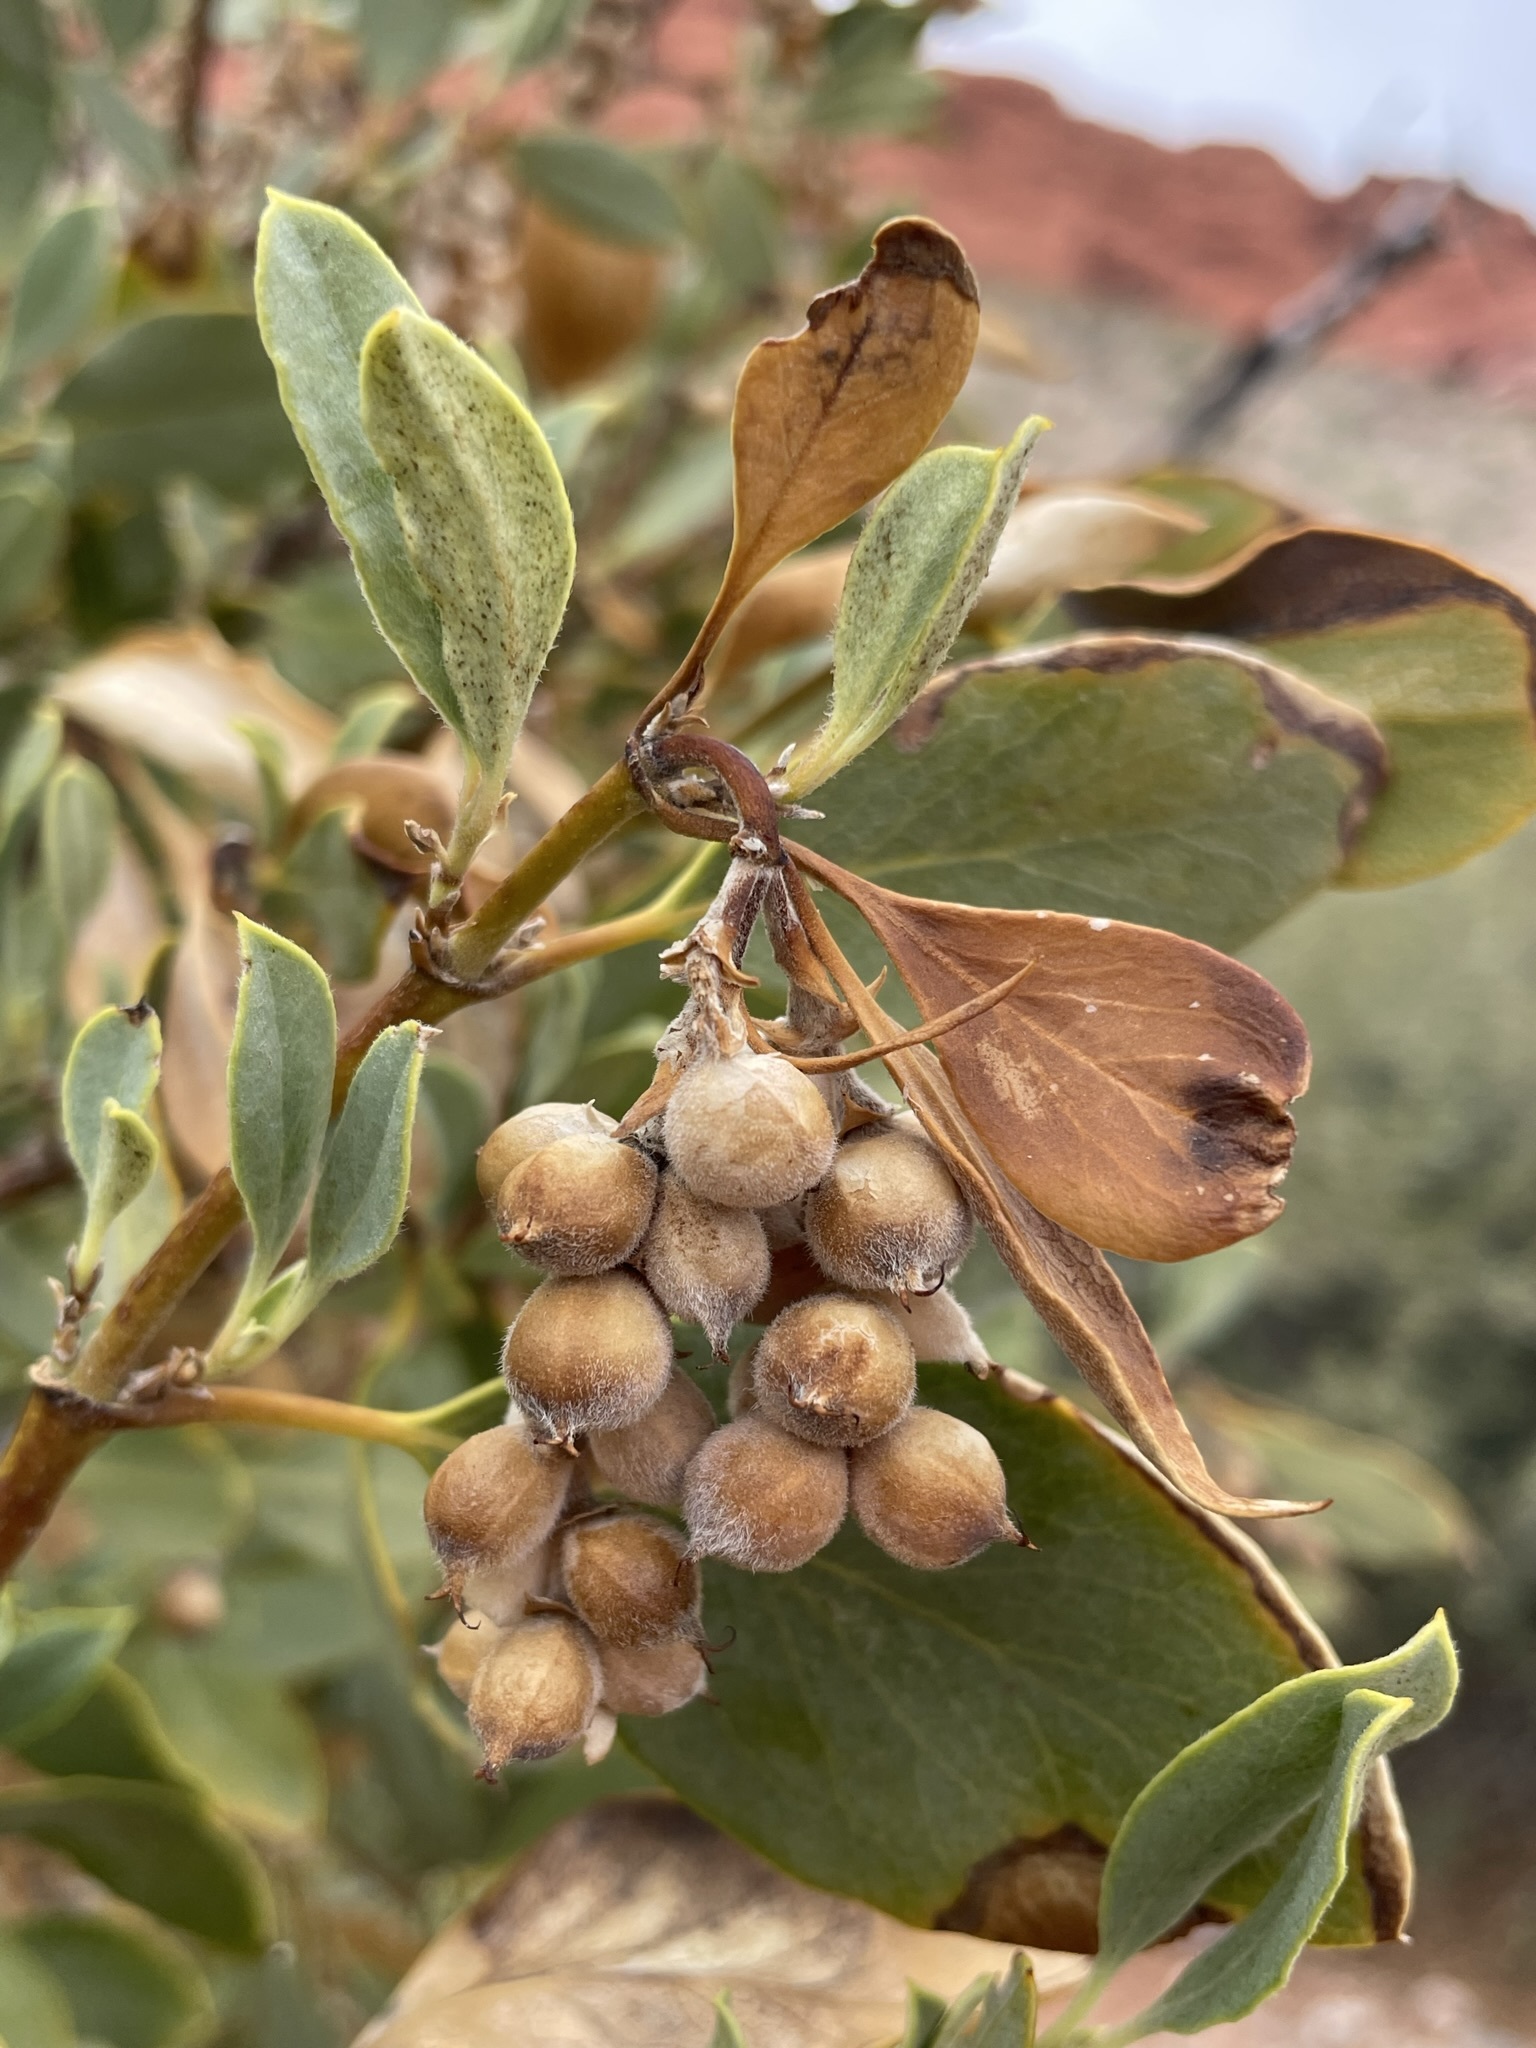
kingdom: Plantae
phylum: Tracheophyta
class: Magnoliopsida
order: Garryales
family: Garryaceae
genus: Garrya
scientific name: Garrya flavescens
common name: Ashy silk-tassel
